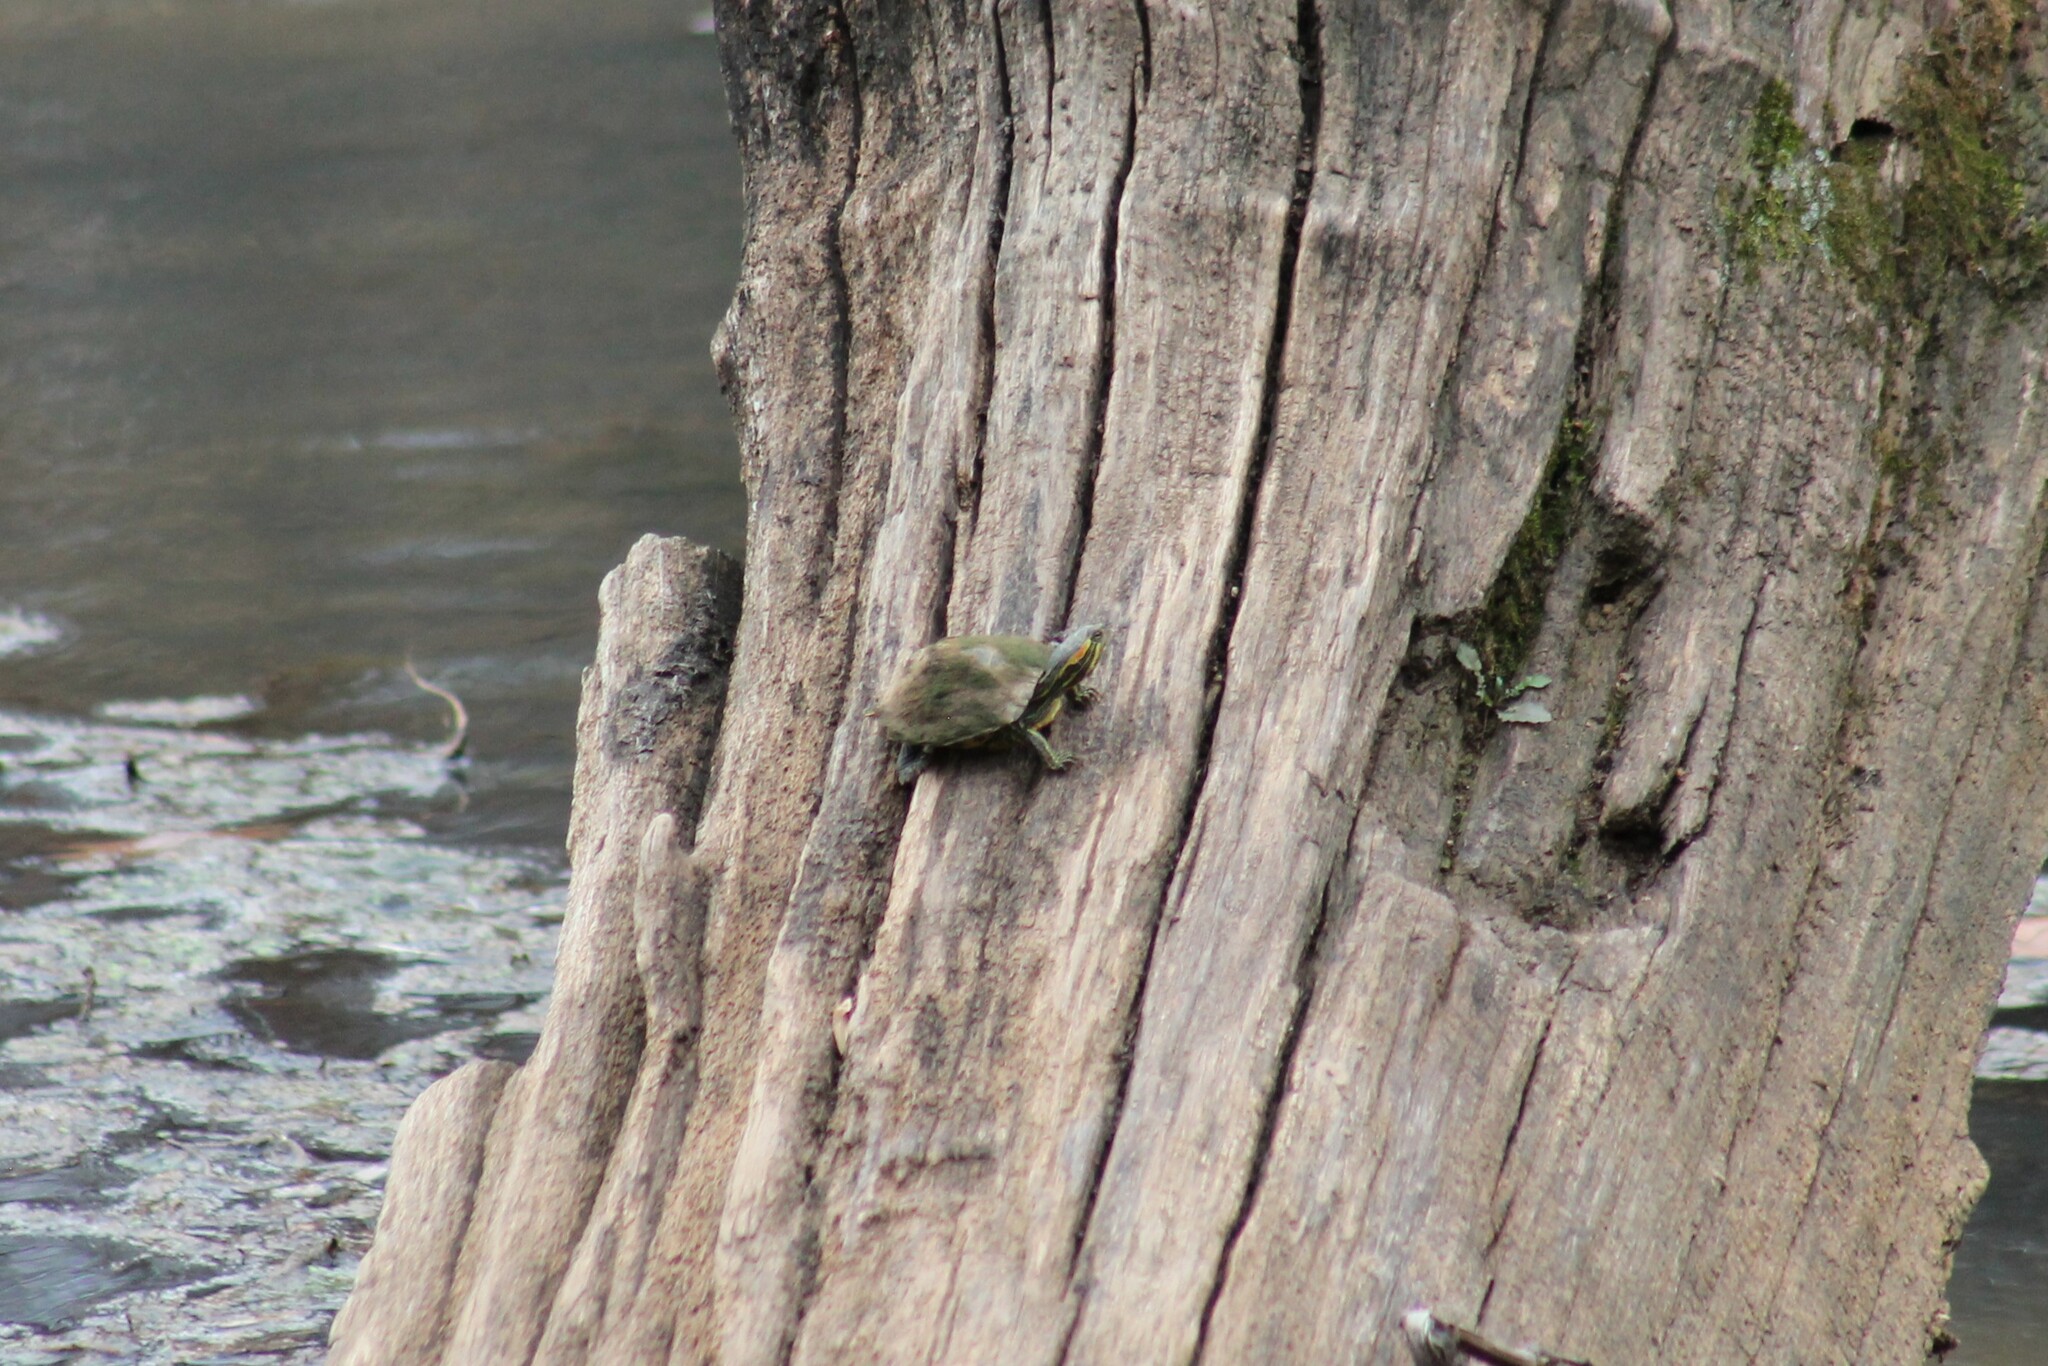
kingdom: Animalia
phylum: Chordata
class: Testudines
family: Emydidae
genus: Trachemys
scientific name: Trachemys scripta
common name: Slider
